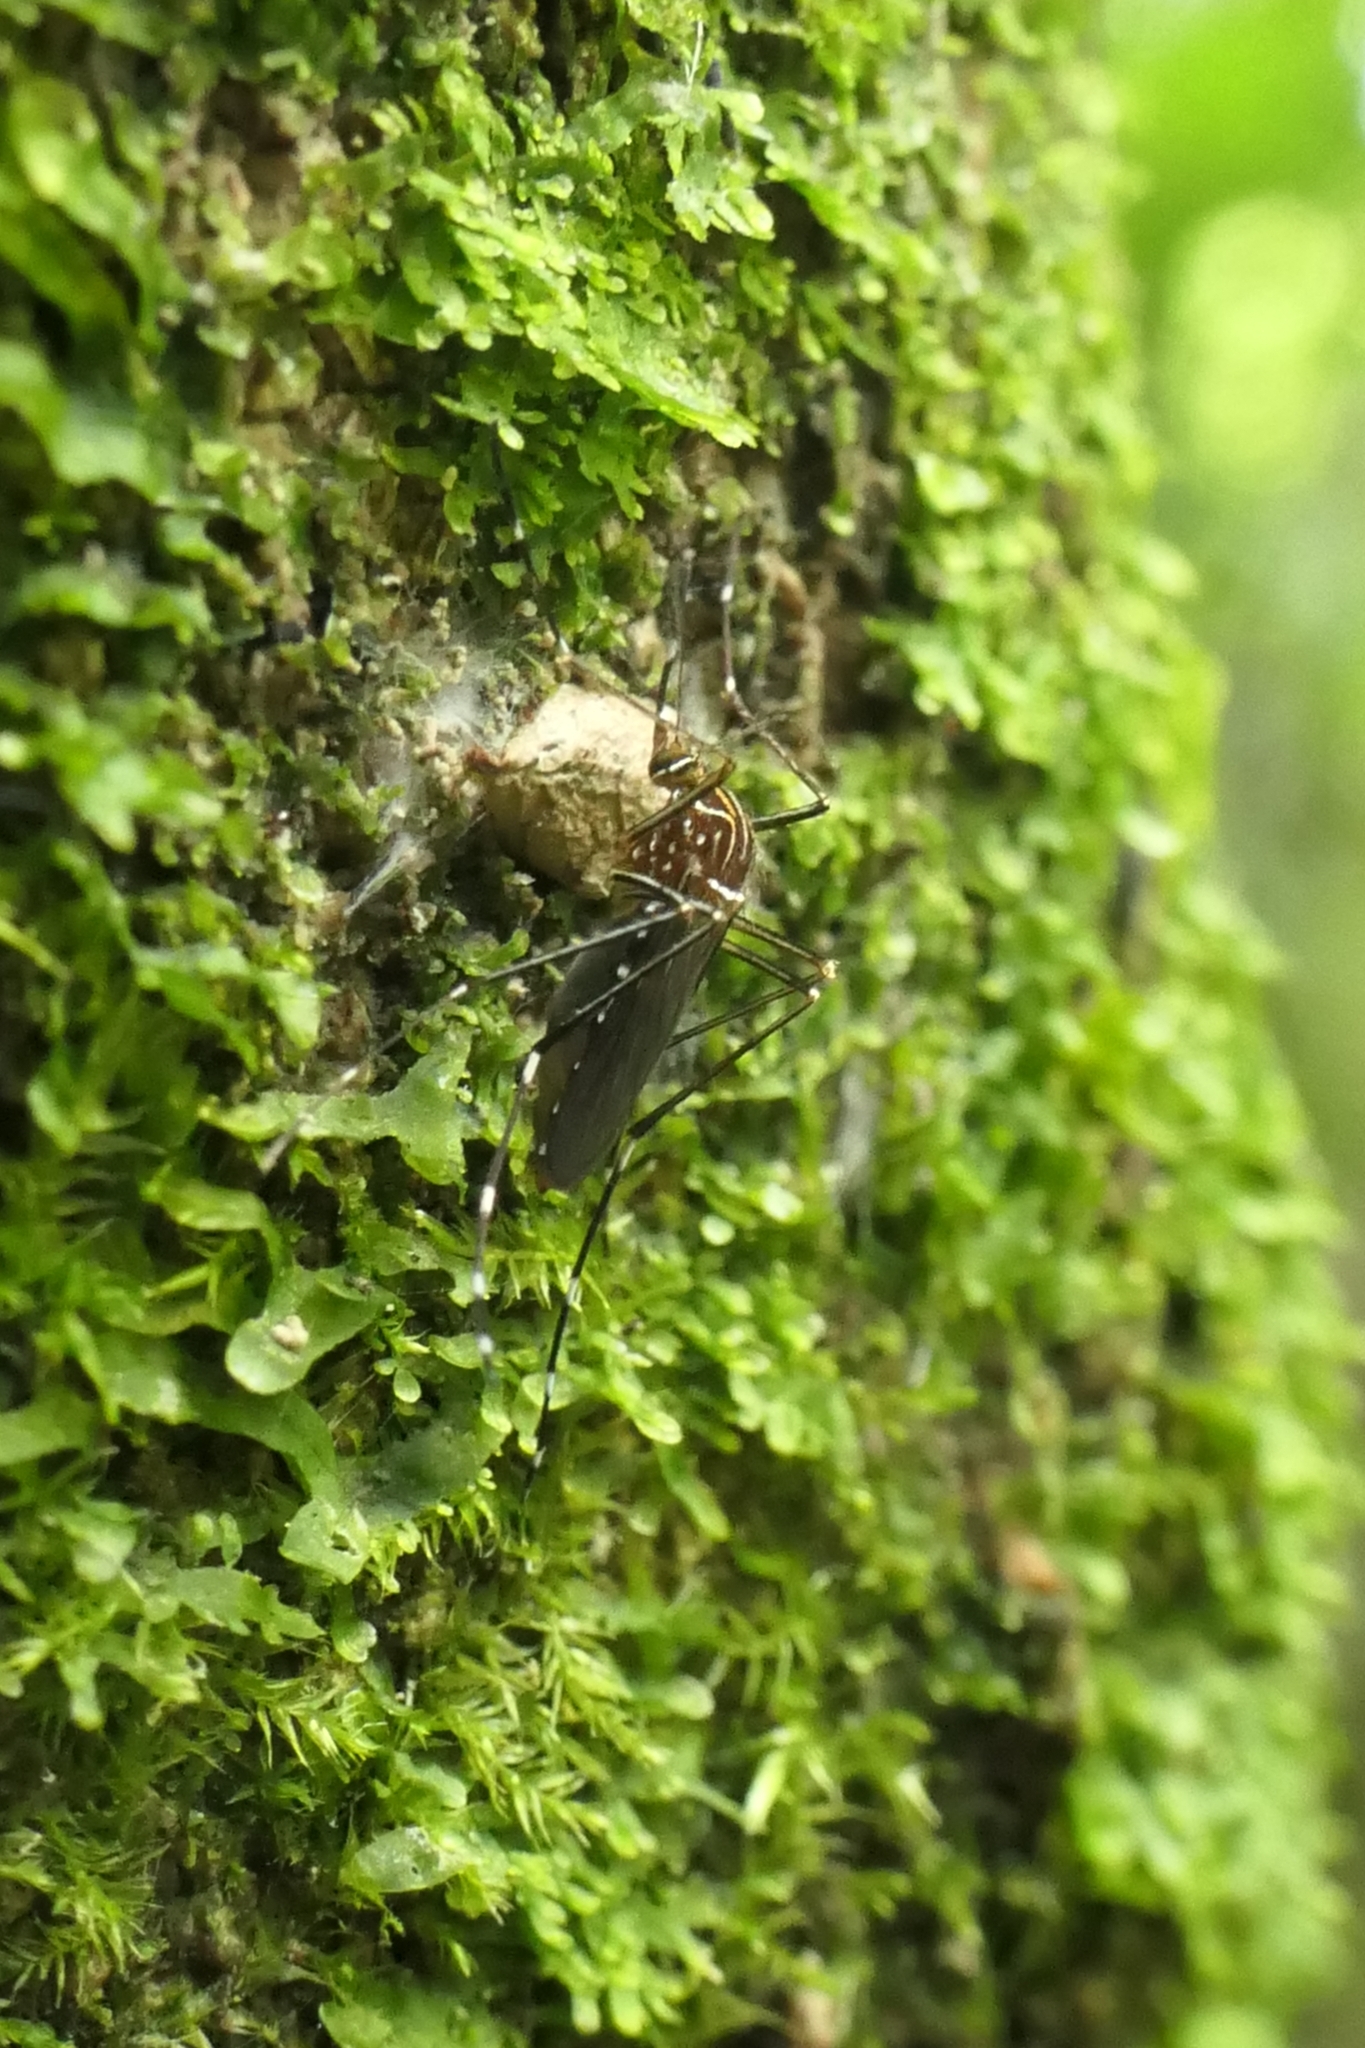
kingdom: Animalia
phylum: Arthropoda
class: Insecta
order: Diptera
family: Culicidae
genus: Aedes
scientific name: Aedes notoscriptus
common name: Australian backyard mosquito
